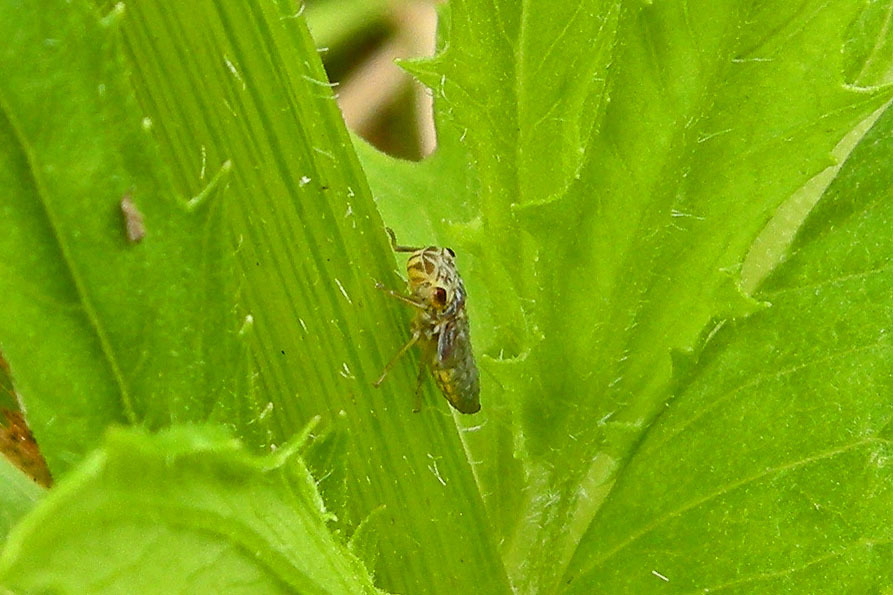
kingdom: Animalia
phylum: Arthropoda
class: Insecta
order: Hemiptera
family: Cicadellidae
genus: Oncometopia
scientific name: Oncometopia orbona
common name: Broad-headed sharpshooter
